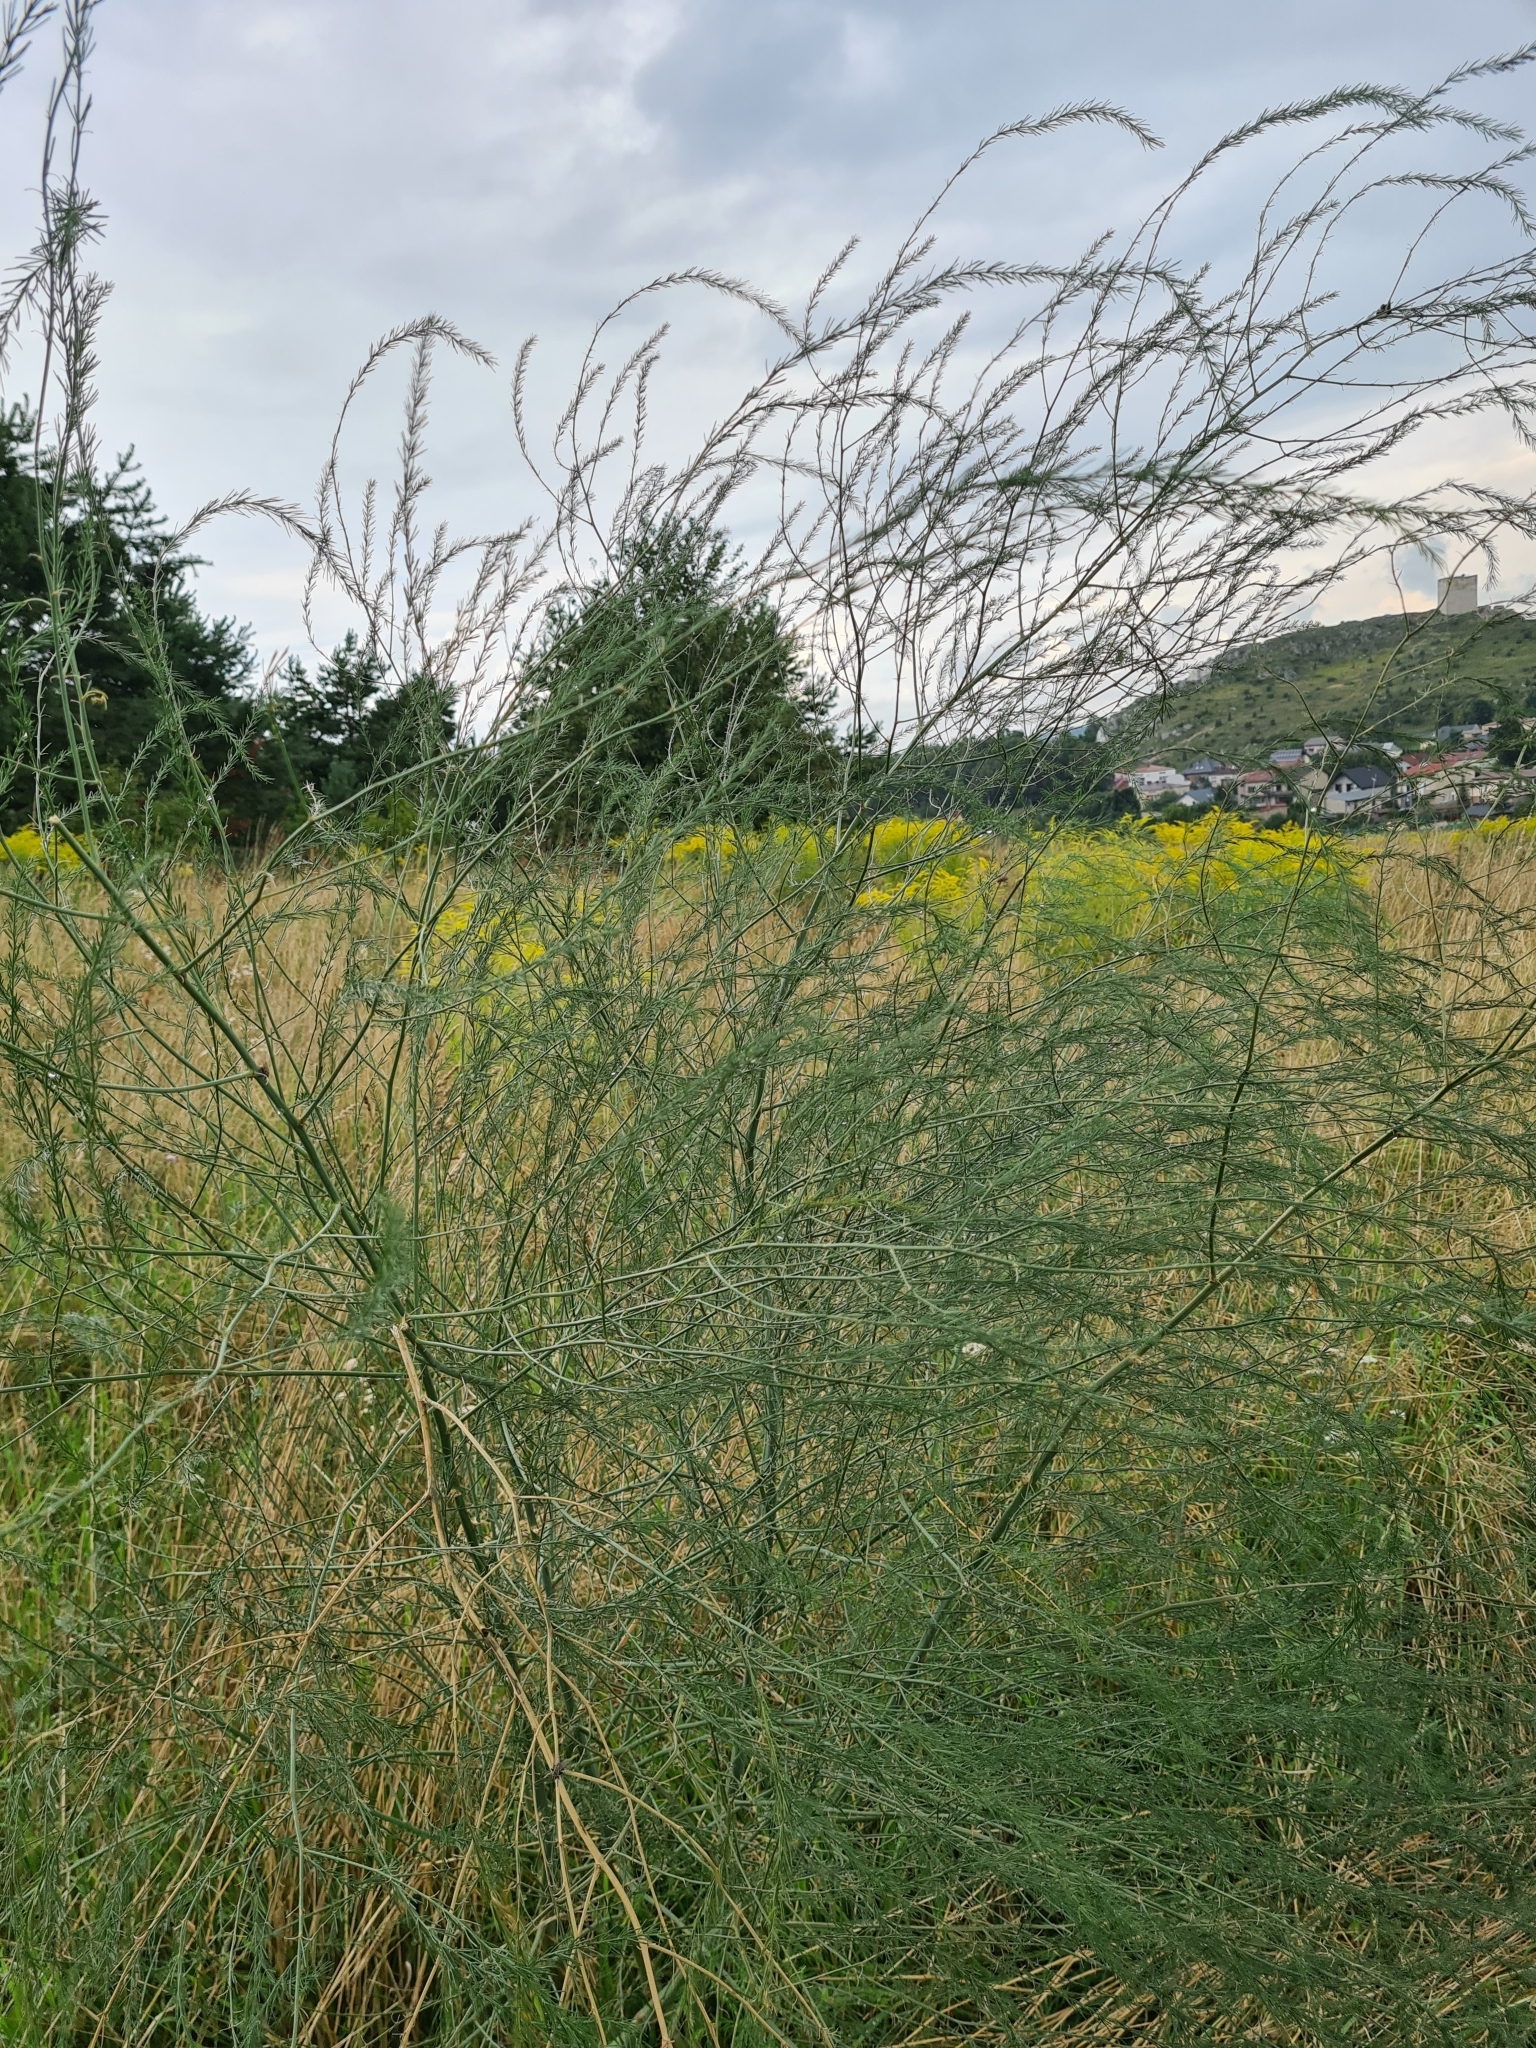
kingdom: Plantae
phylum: Tracheophyta
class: Liliopsida
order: Asparagales
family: Asparagaceae
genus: Asparagus
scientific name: Asparagus officinalis
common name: Garden asparagus
